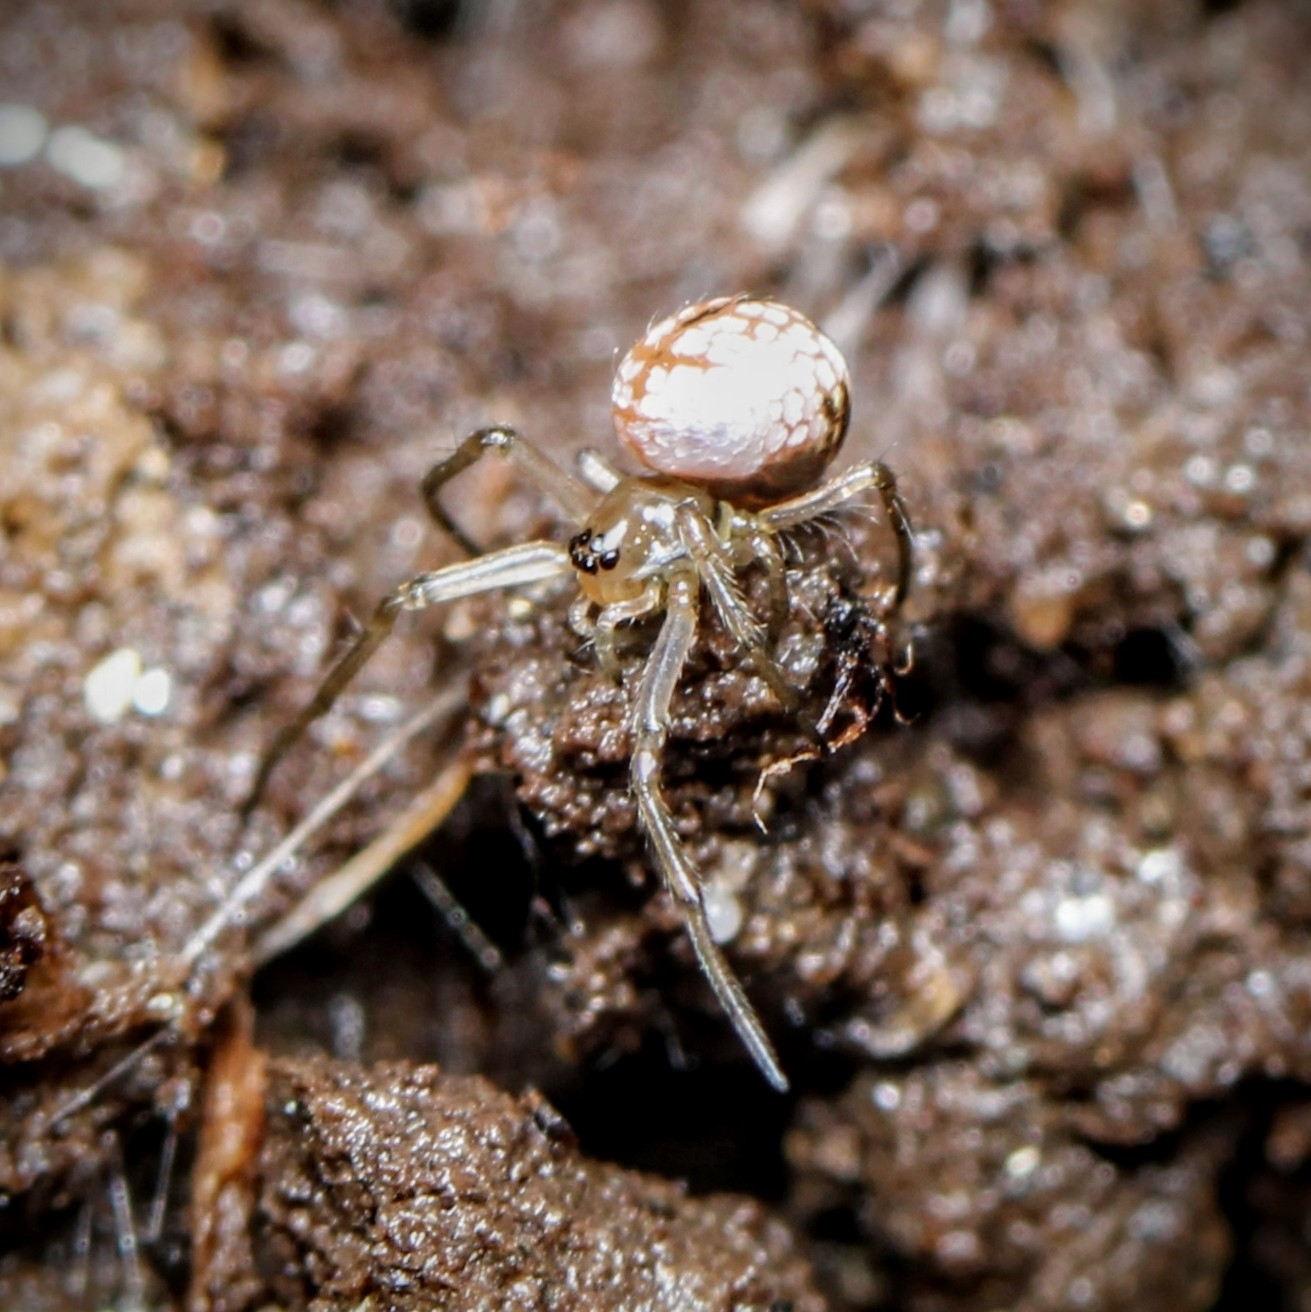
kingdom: Animalia
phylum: Arthropoda
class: Arachnida
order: Araneae
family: Tetragnathidae
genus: Leucauge
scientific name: Leucauge venusta
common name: Longjawed orb weavers
